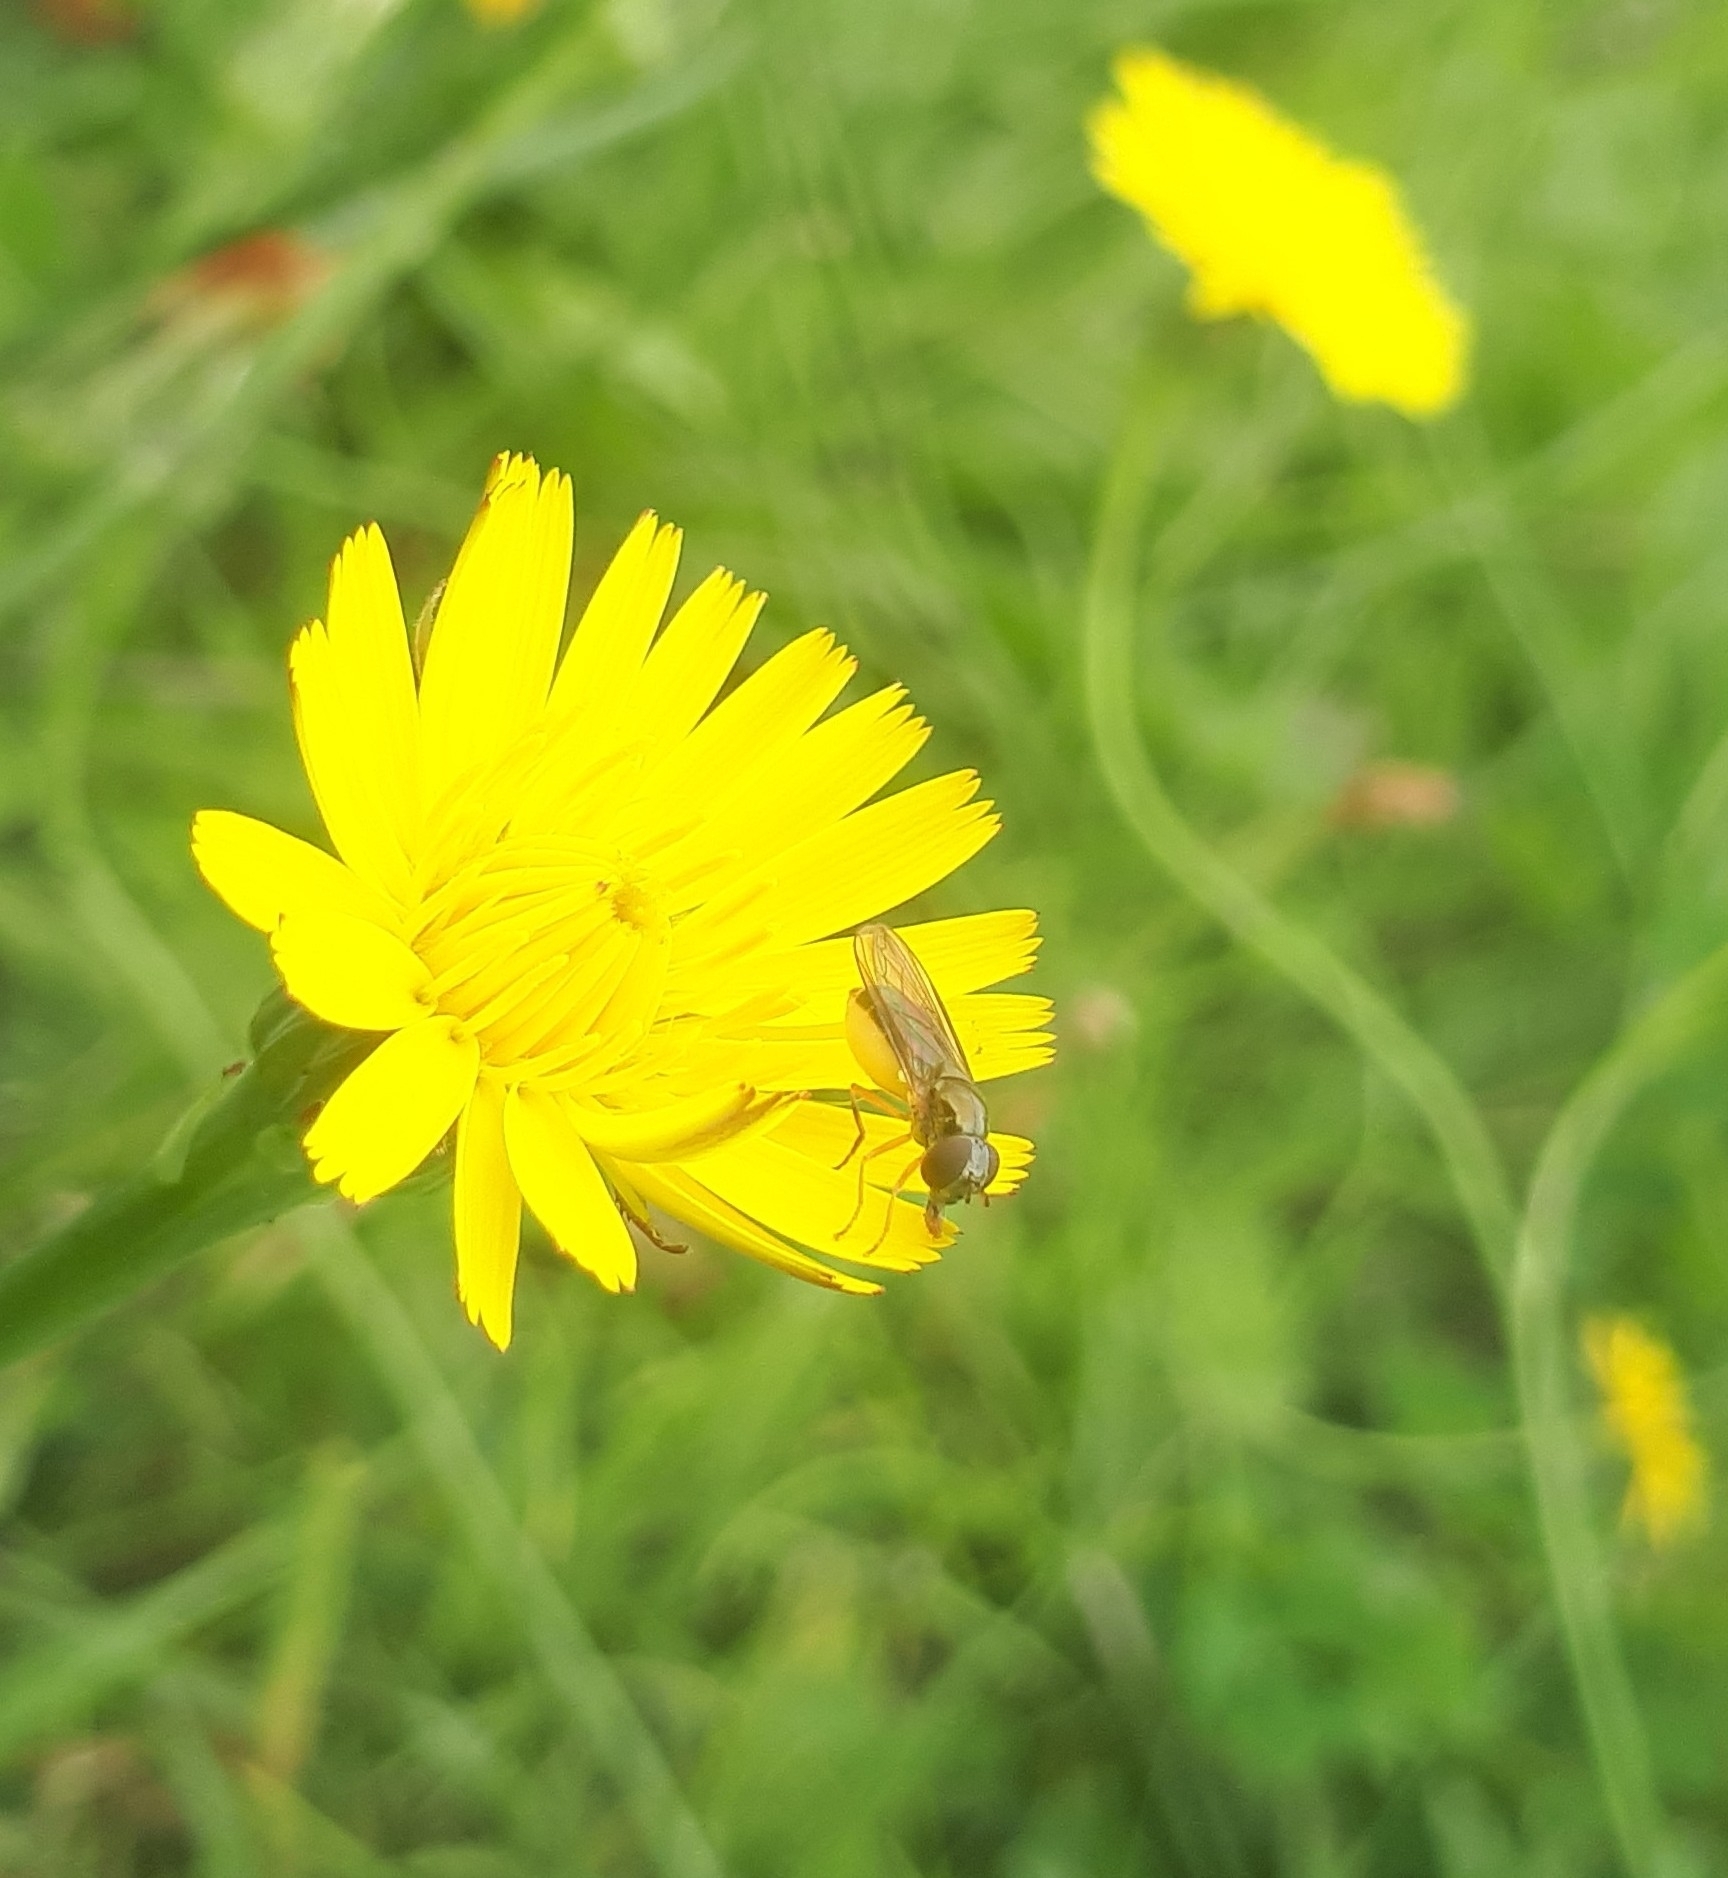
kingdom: Animalia
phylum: Arthropoda
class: Insecta
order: Diptera
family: Syrphidae
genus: Melanostoma
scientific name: Melanostoma fasciatum
